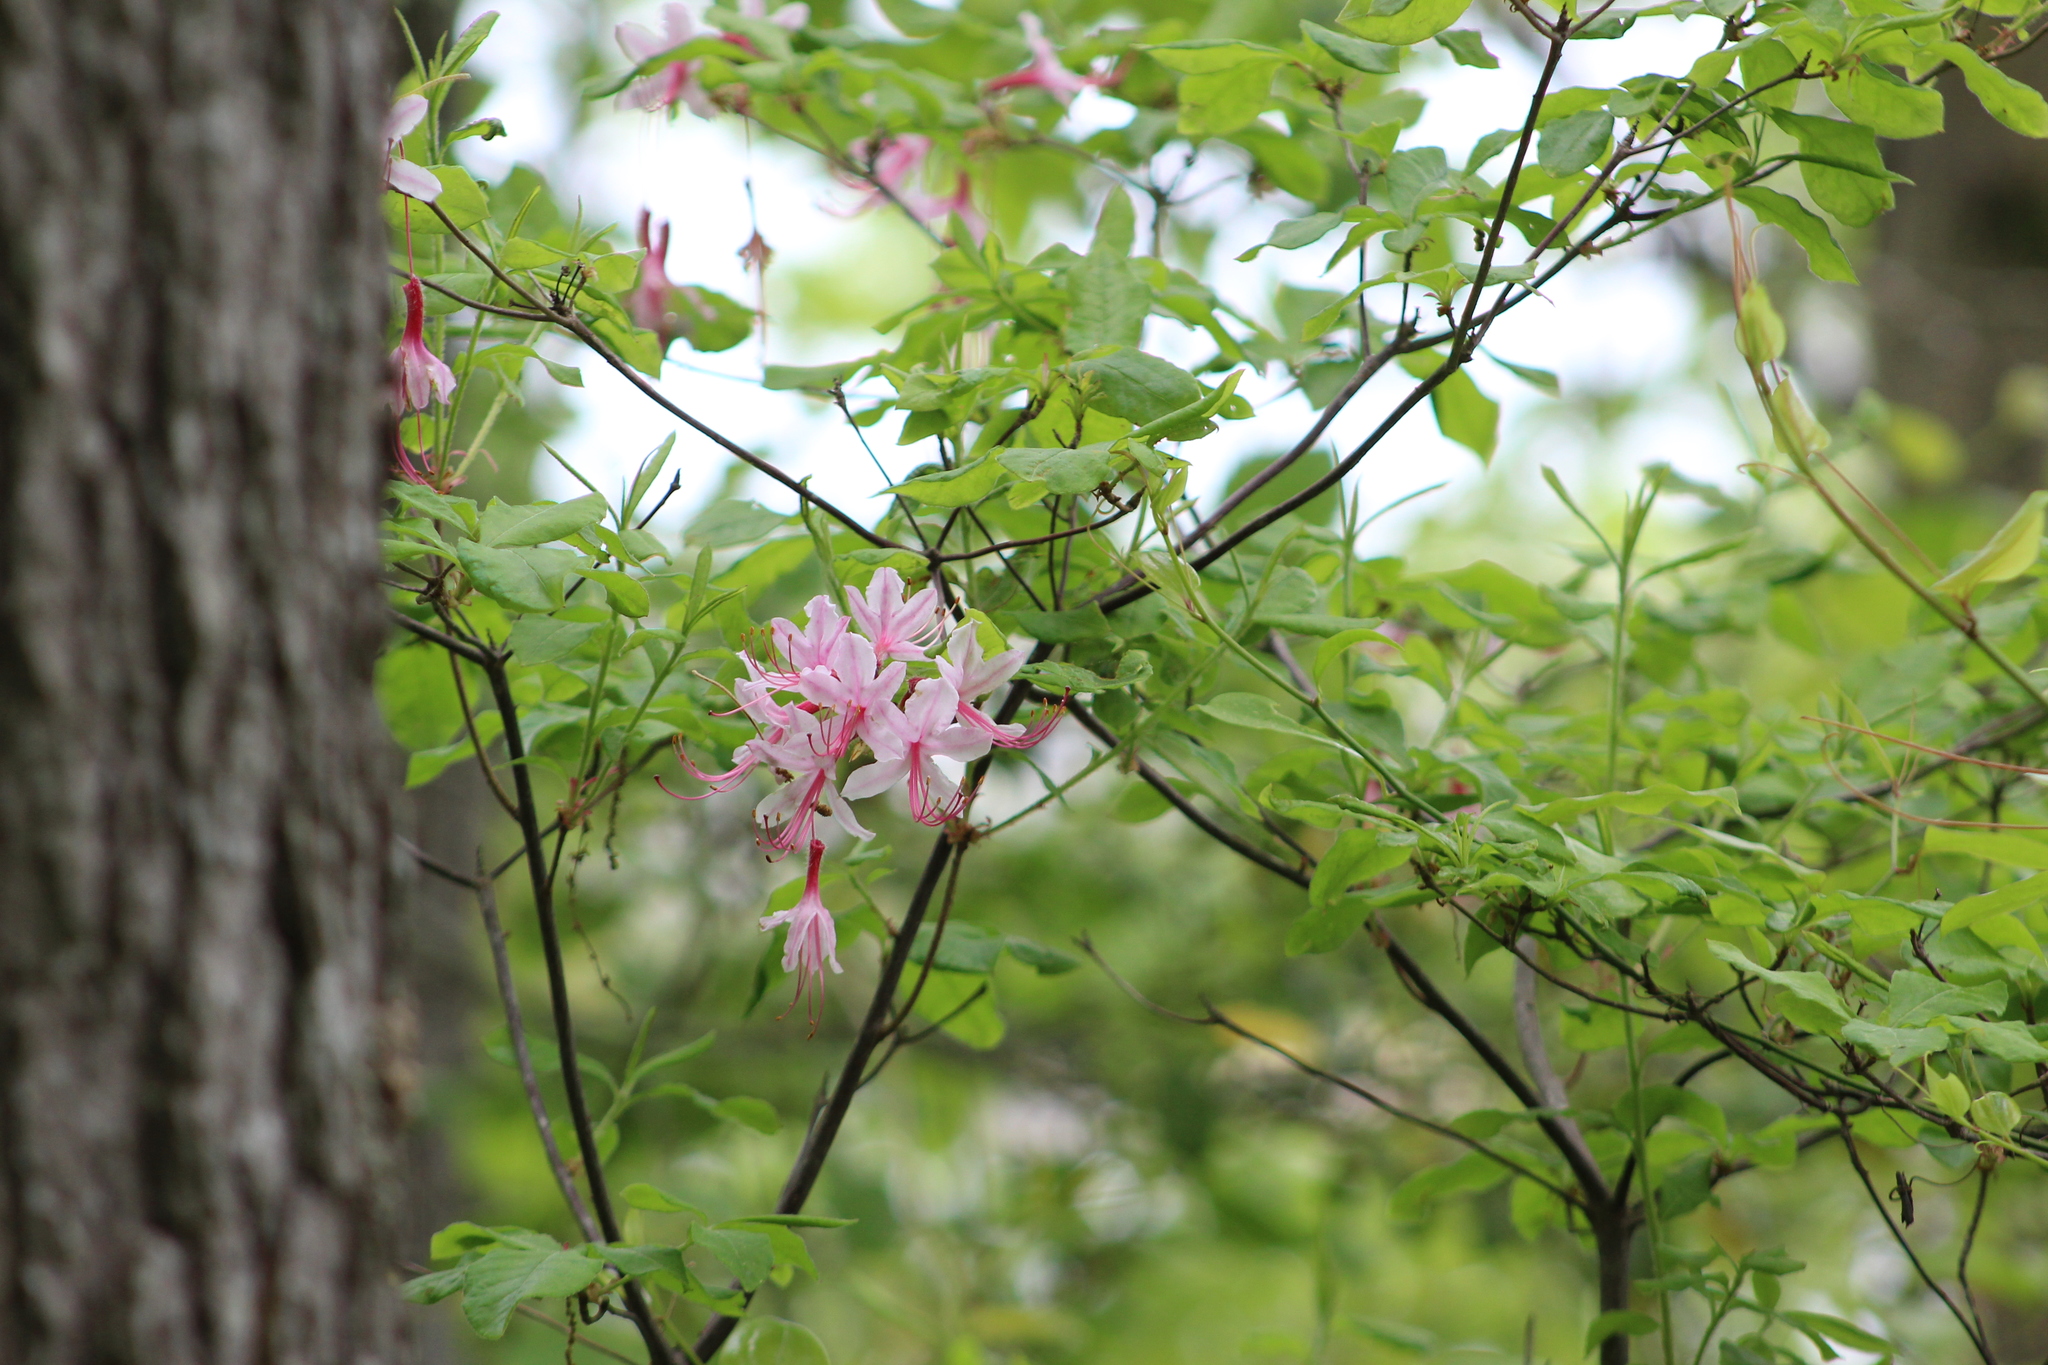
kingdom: Plantae
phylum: Tracheophyta
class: Magnoliopsida
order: Ericales
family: Ericaceae
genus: Rhododendron
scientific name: Rhododendron periclymenoides
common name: Election-pink
